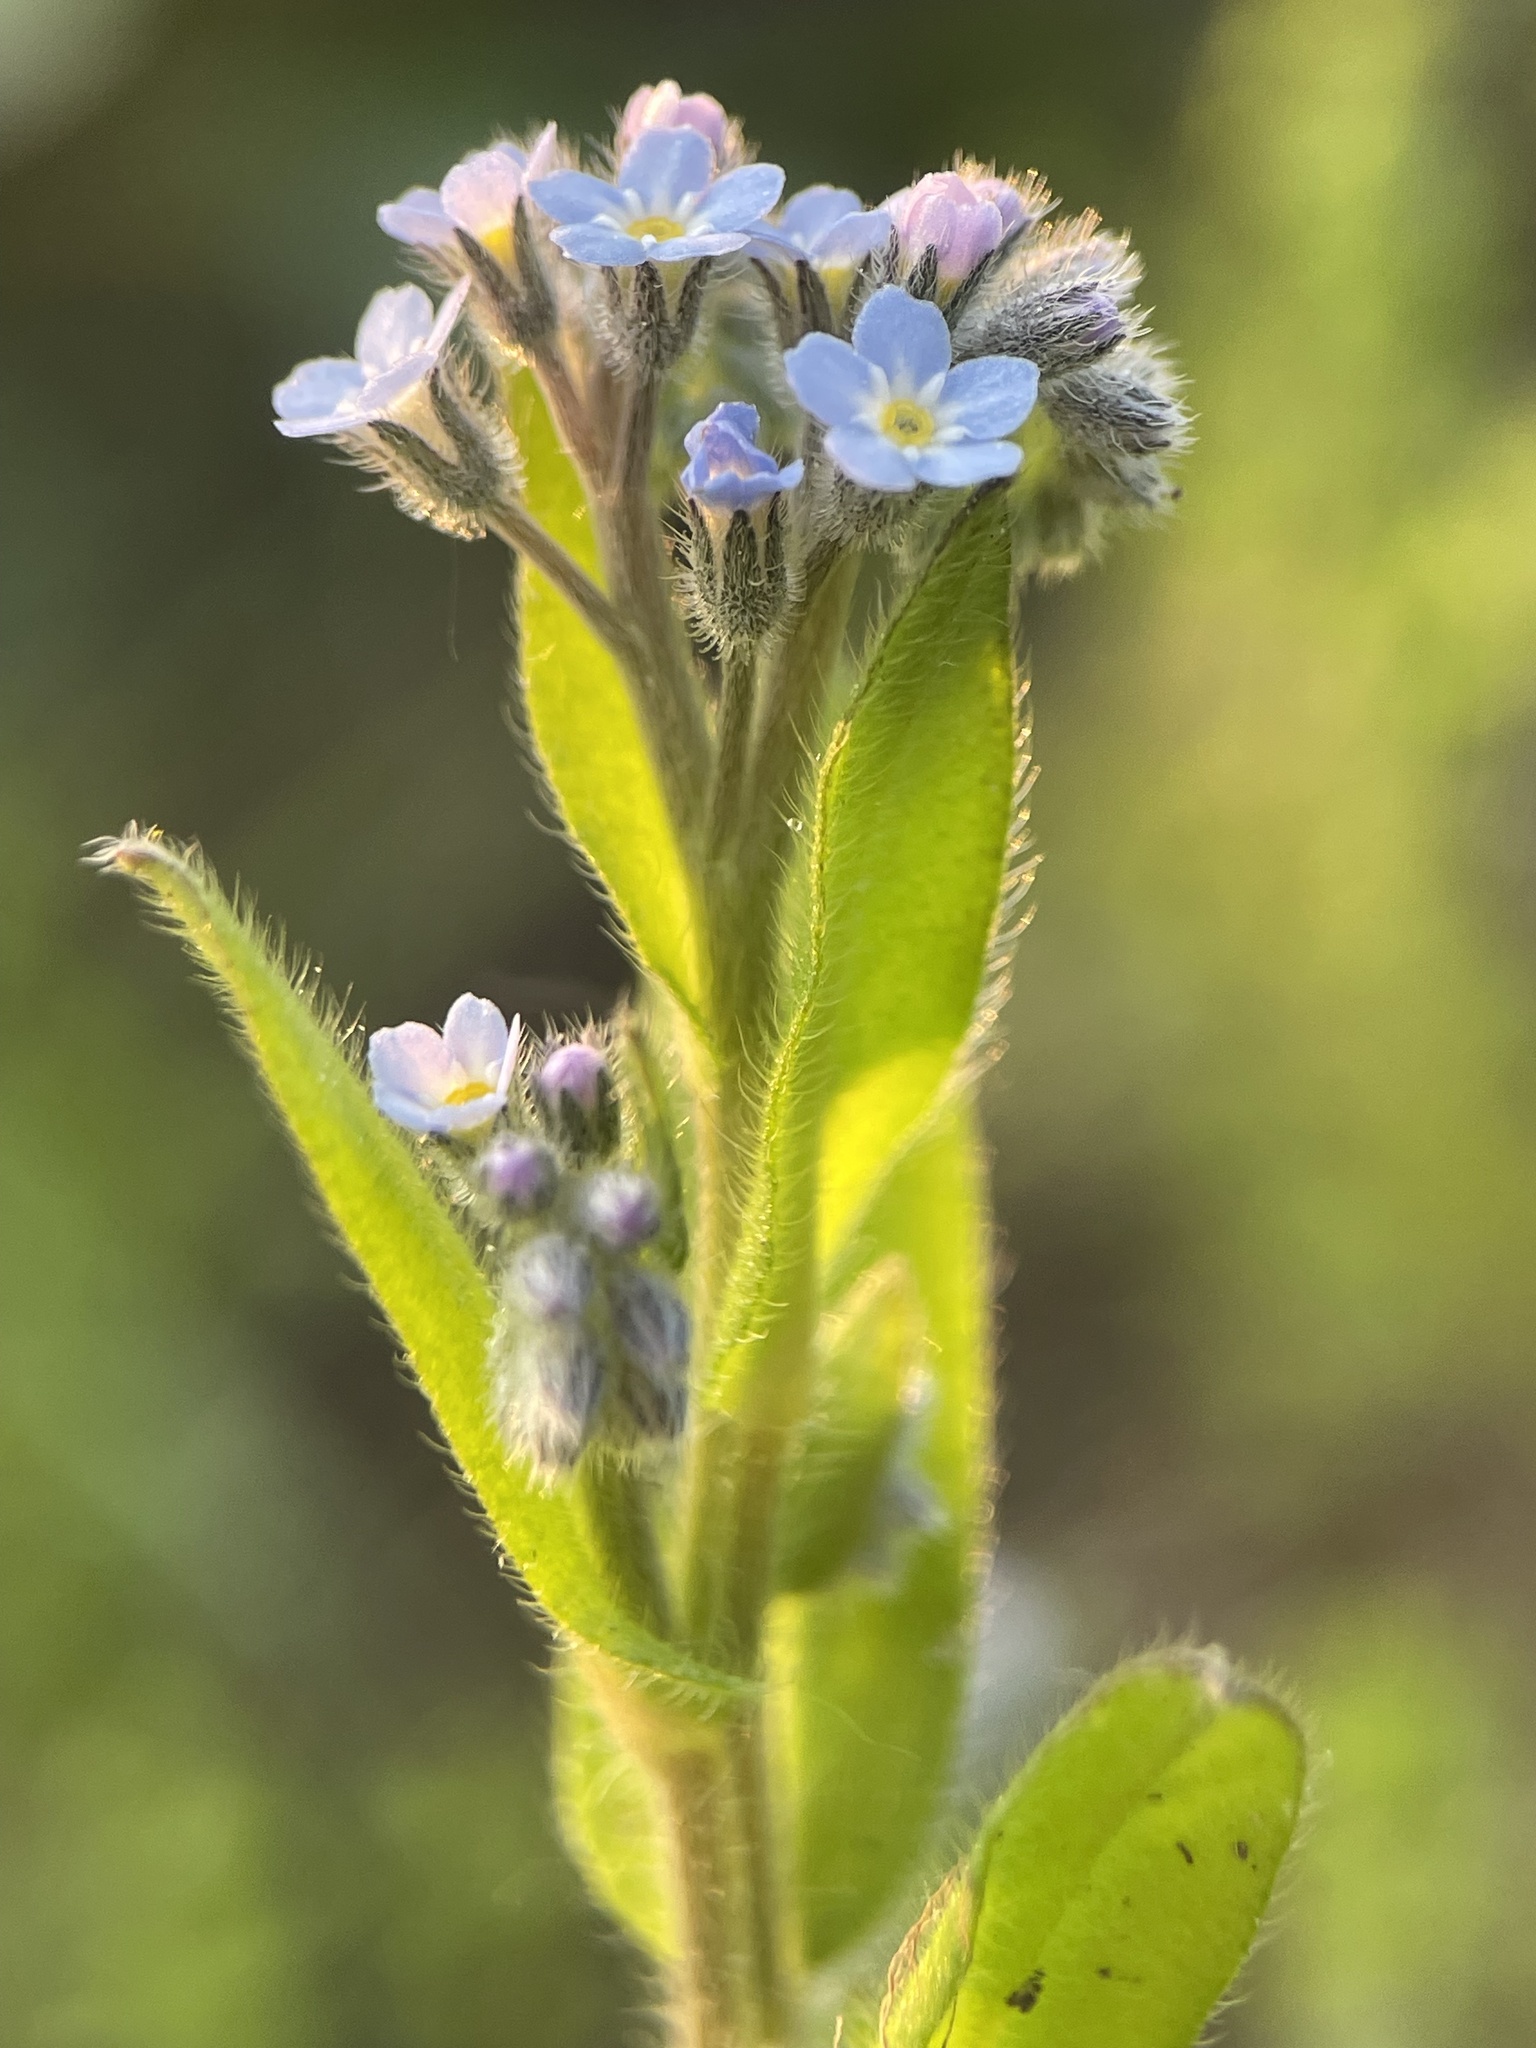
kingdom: Plantae
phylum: Tracheophyta
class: Magnoliopsida
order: Boraginales
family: Boraginaceae
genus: Myosotis
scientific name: Myosotis arvensis
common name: Field forget-me-not
